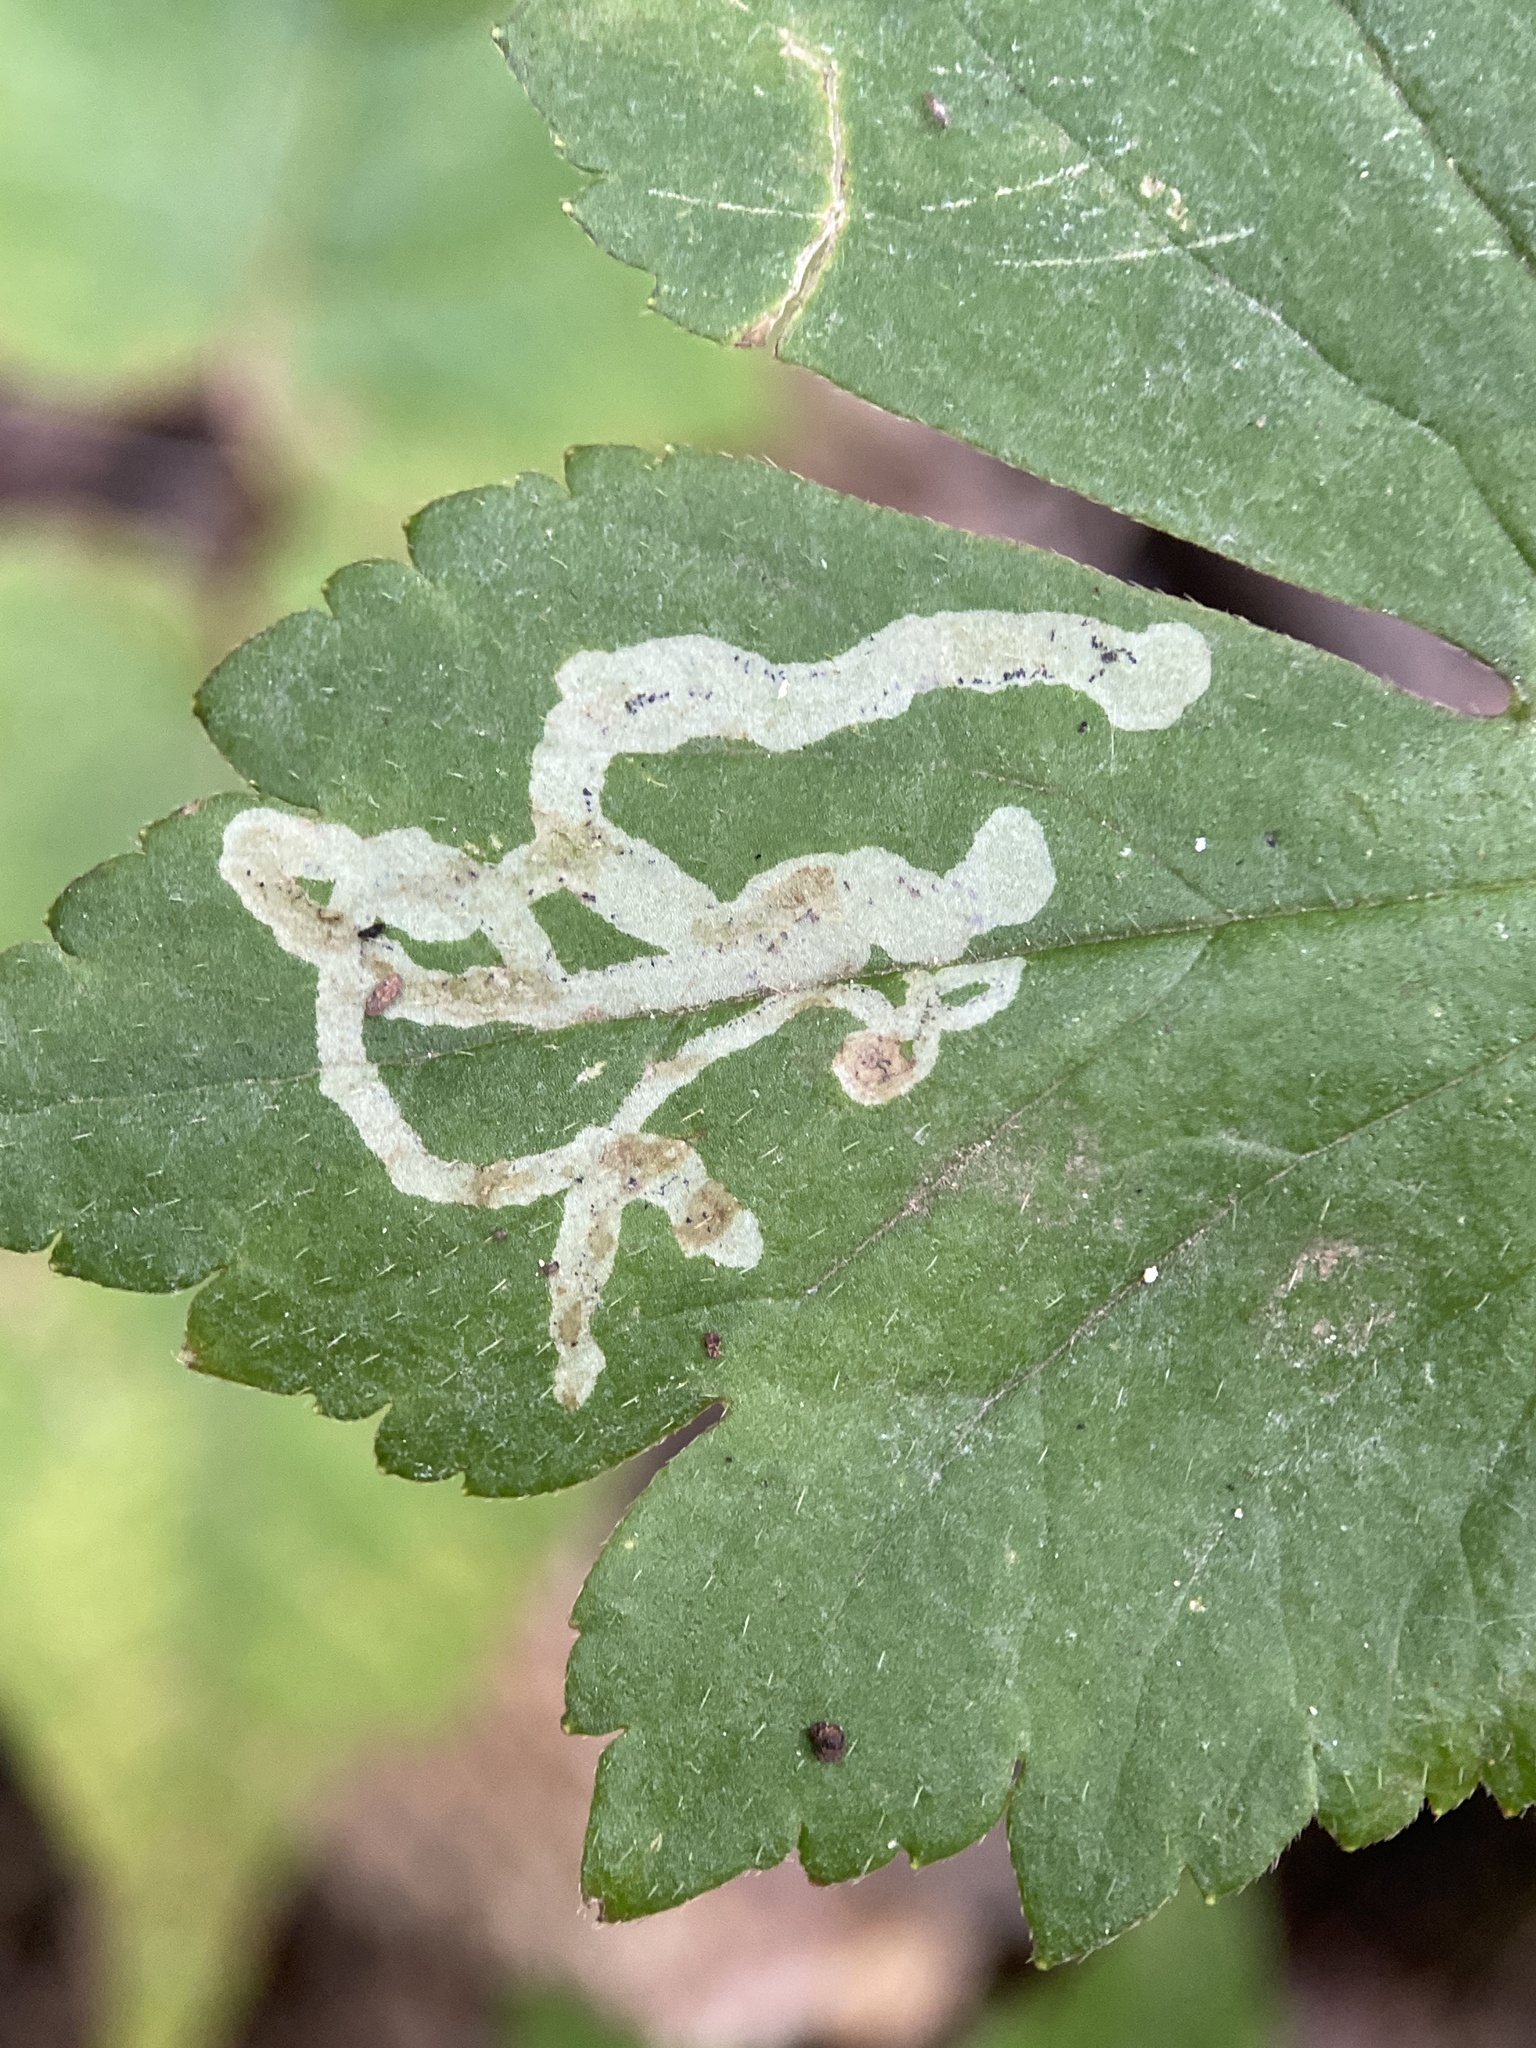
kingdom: Animalia
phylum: Arthropoda
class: Insecta
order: Diptera
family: Agromyzidae
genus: Phytomyza
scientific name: Phytomyza loewii
